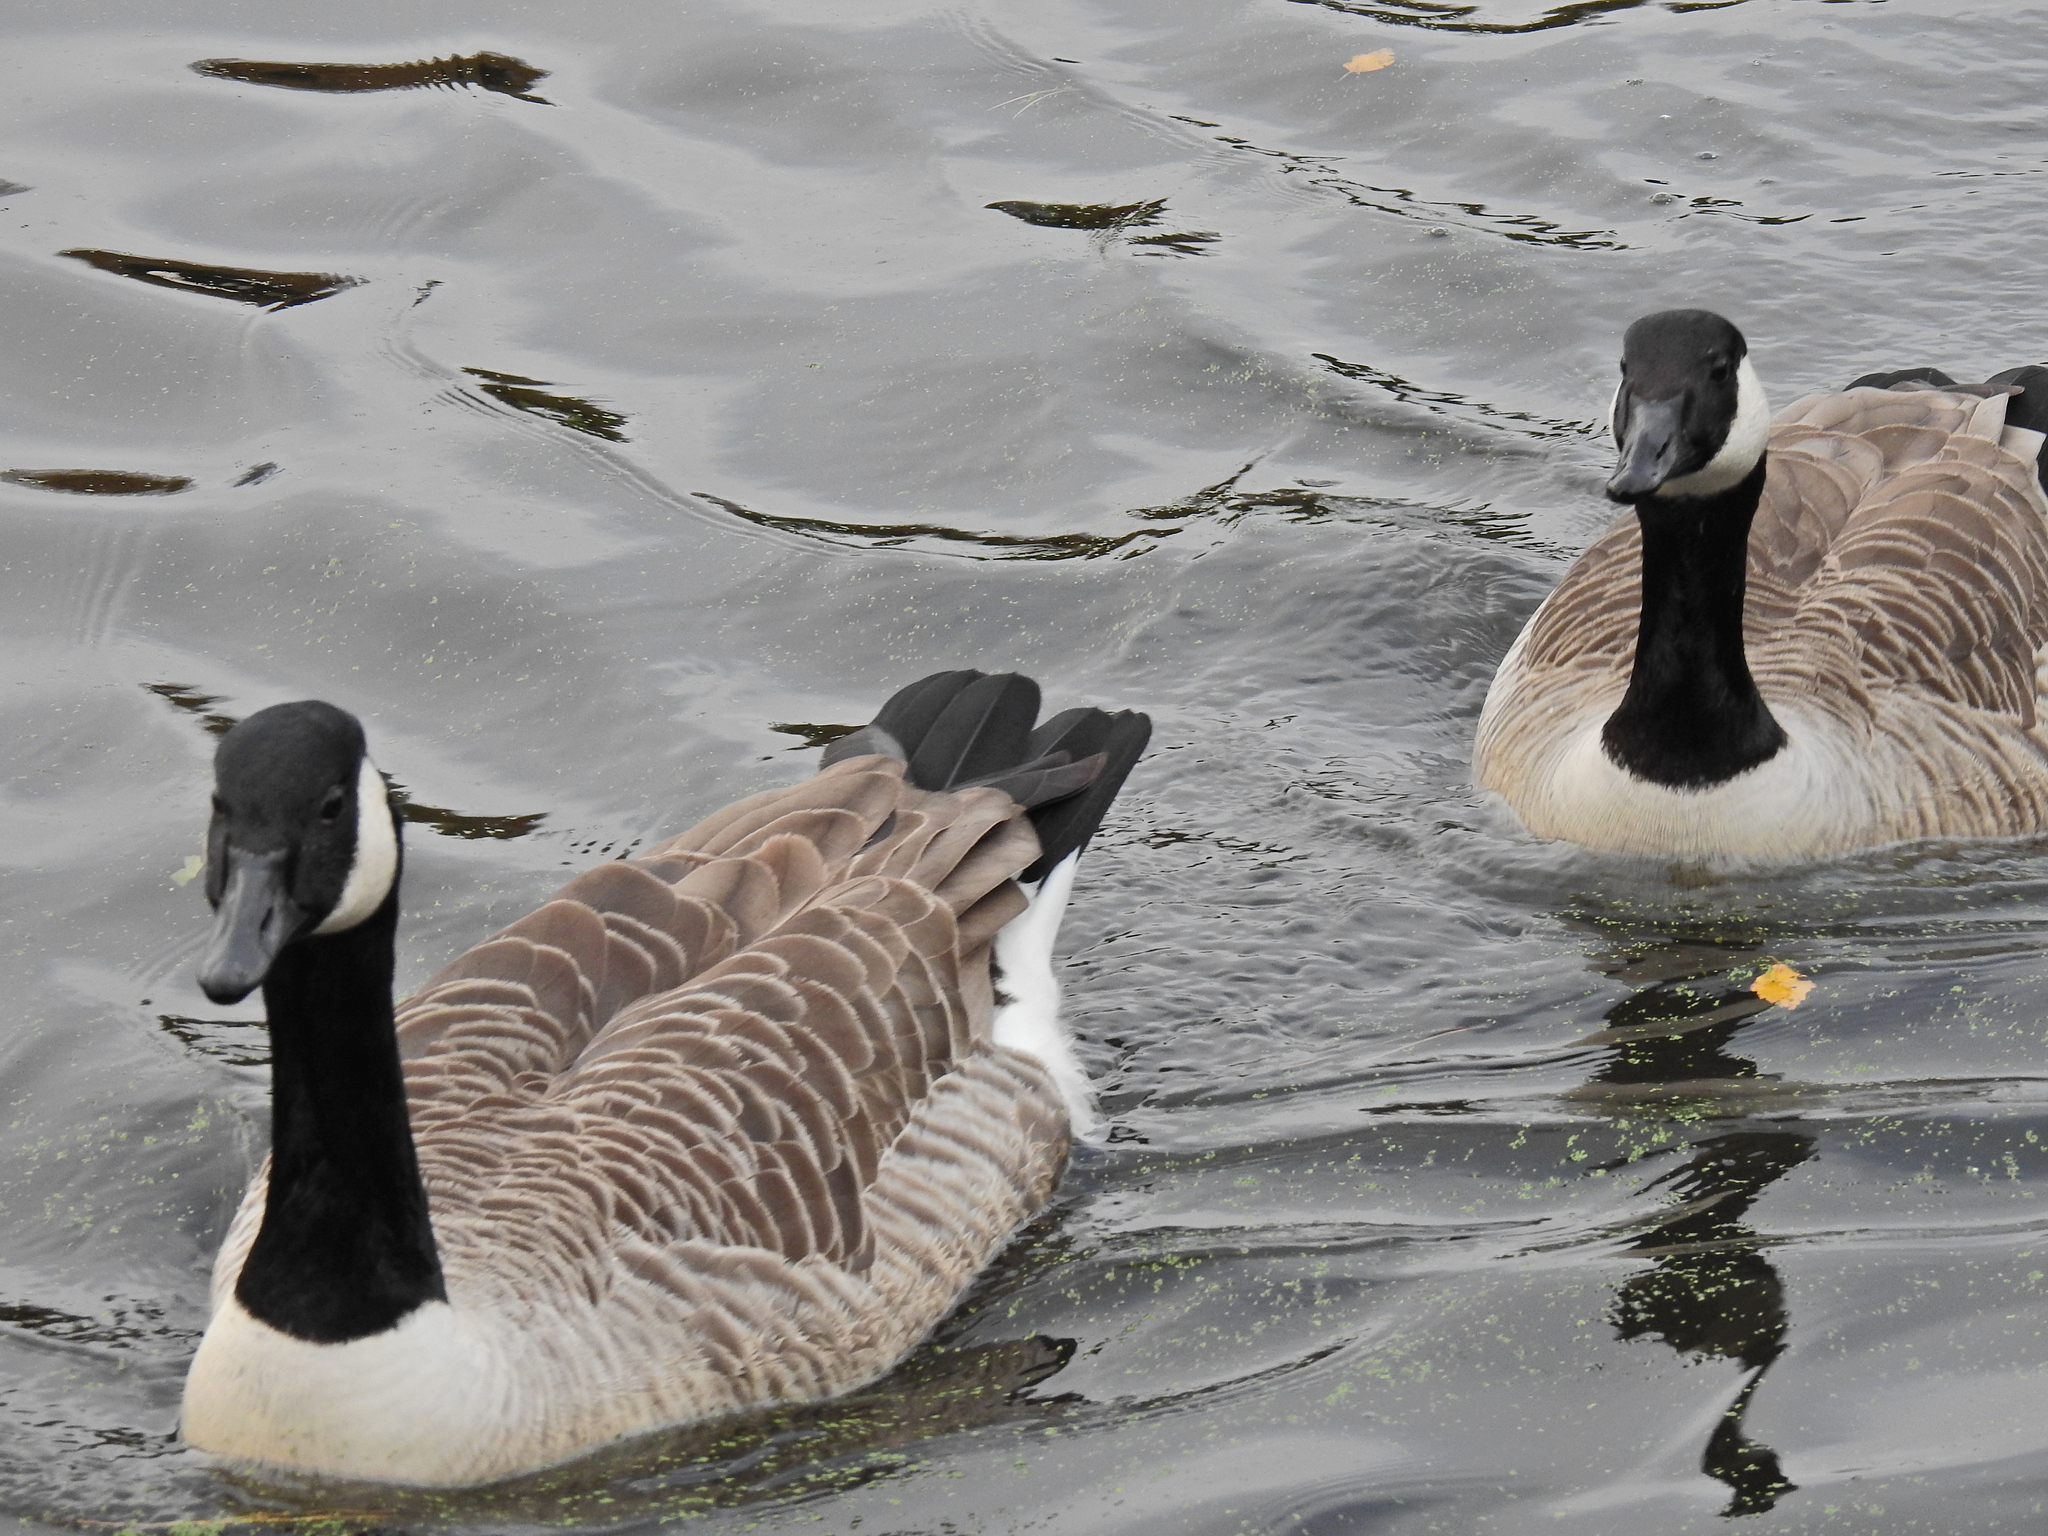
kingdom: Animalia
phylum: Chordata
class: Aves
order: Anseriformes
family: Anatidae
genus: Branta
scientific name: Branta canadensis
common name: Canada goose
